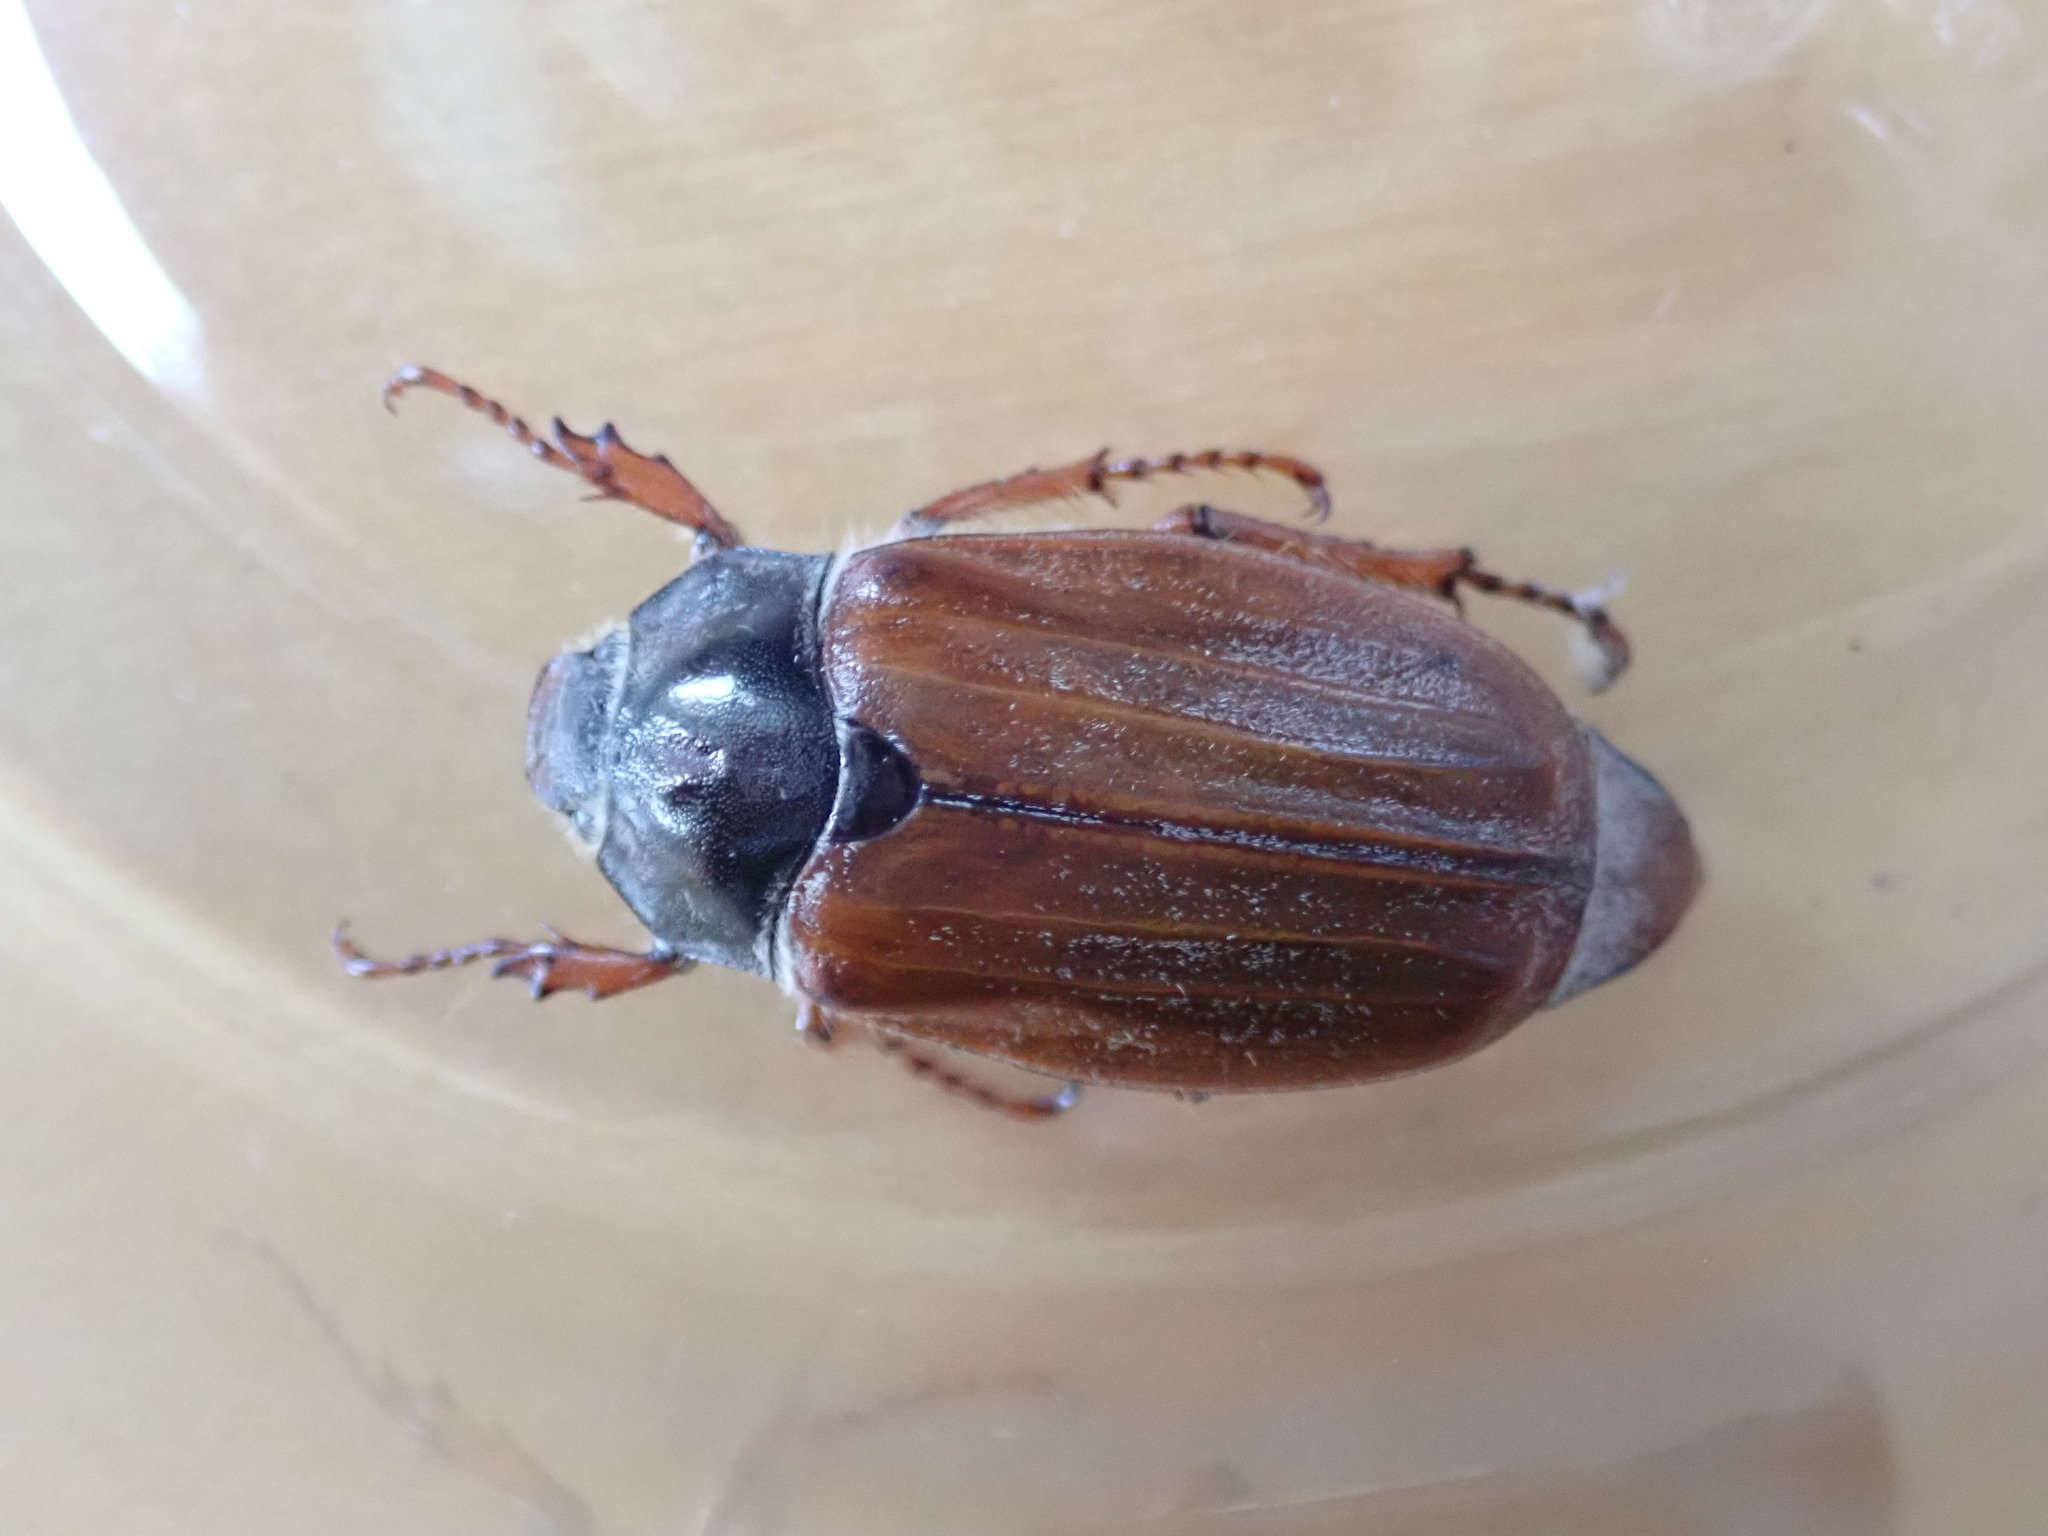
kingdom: Animalia
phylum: Arthropoda
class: Insecta
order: Coleoptera
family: Scarabaeidae
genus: Melolontha
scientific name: Melolontha melolontha
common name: Cockchafer maybeetle
